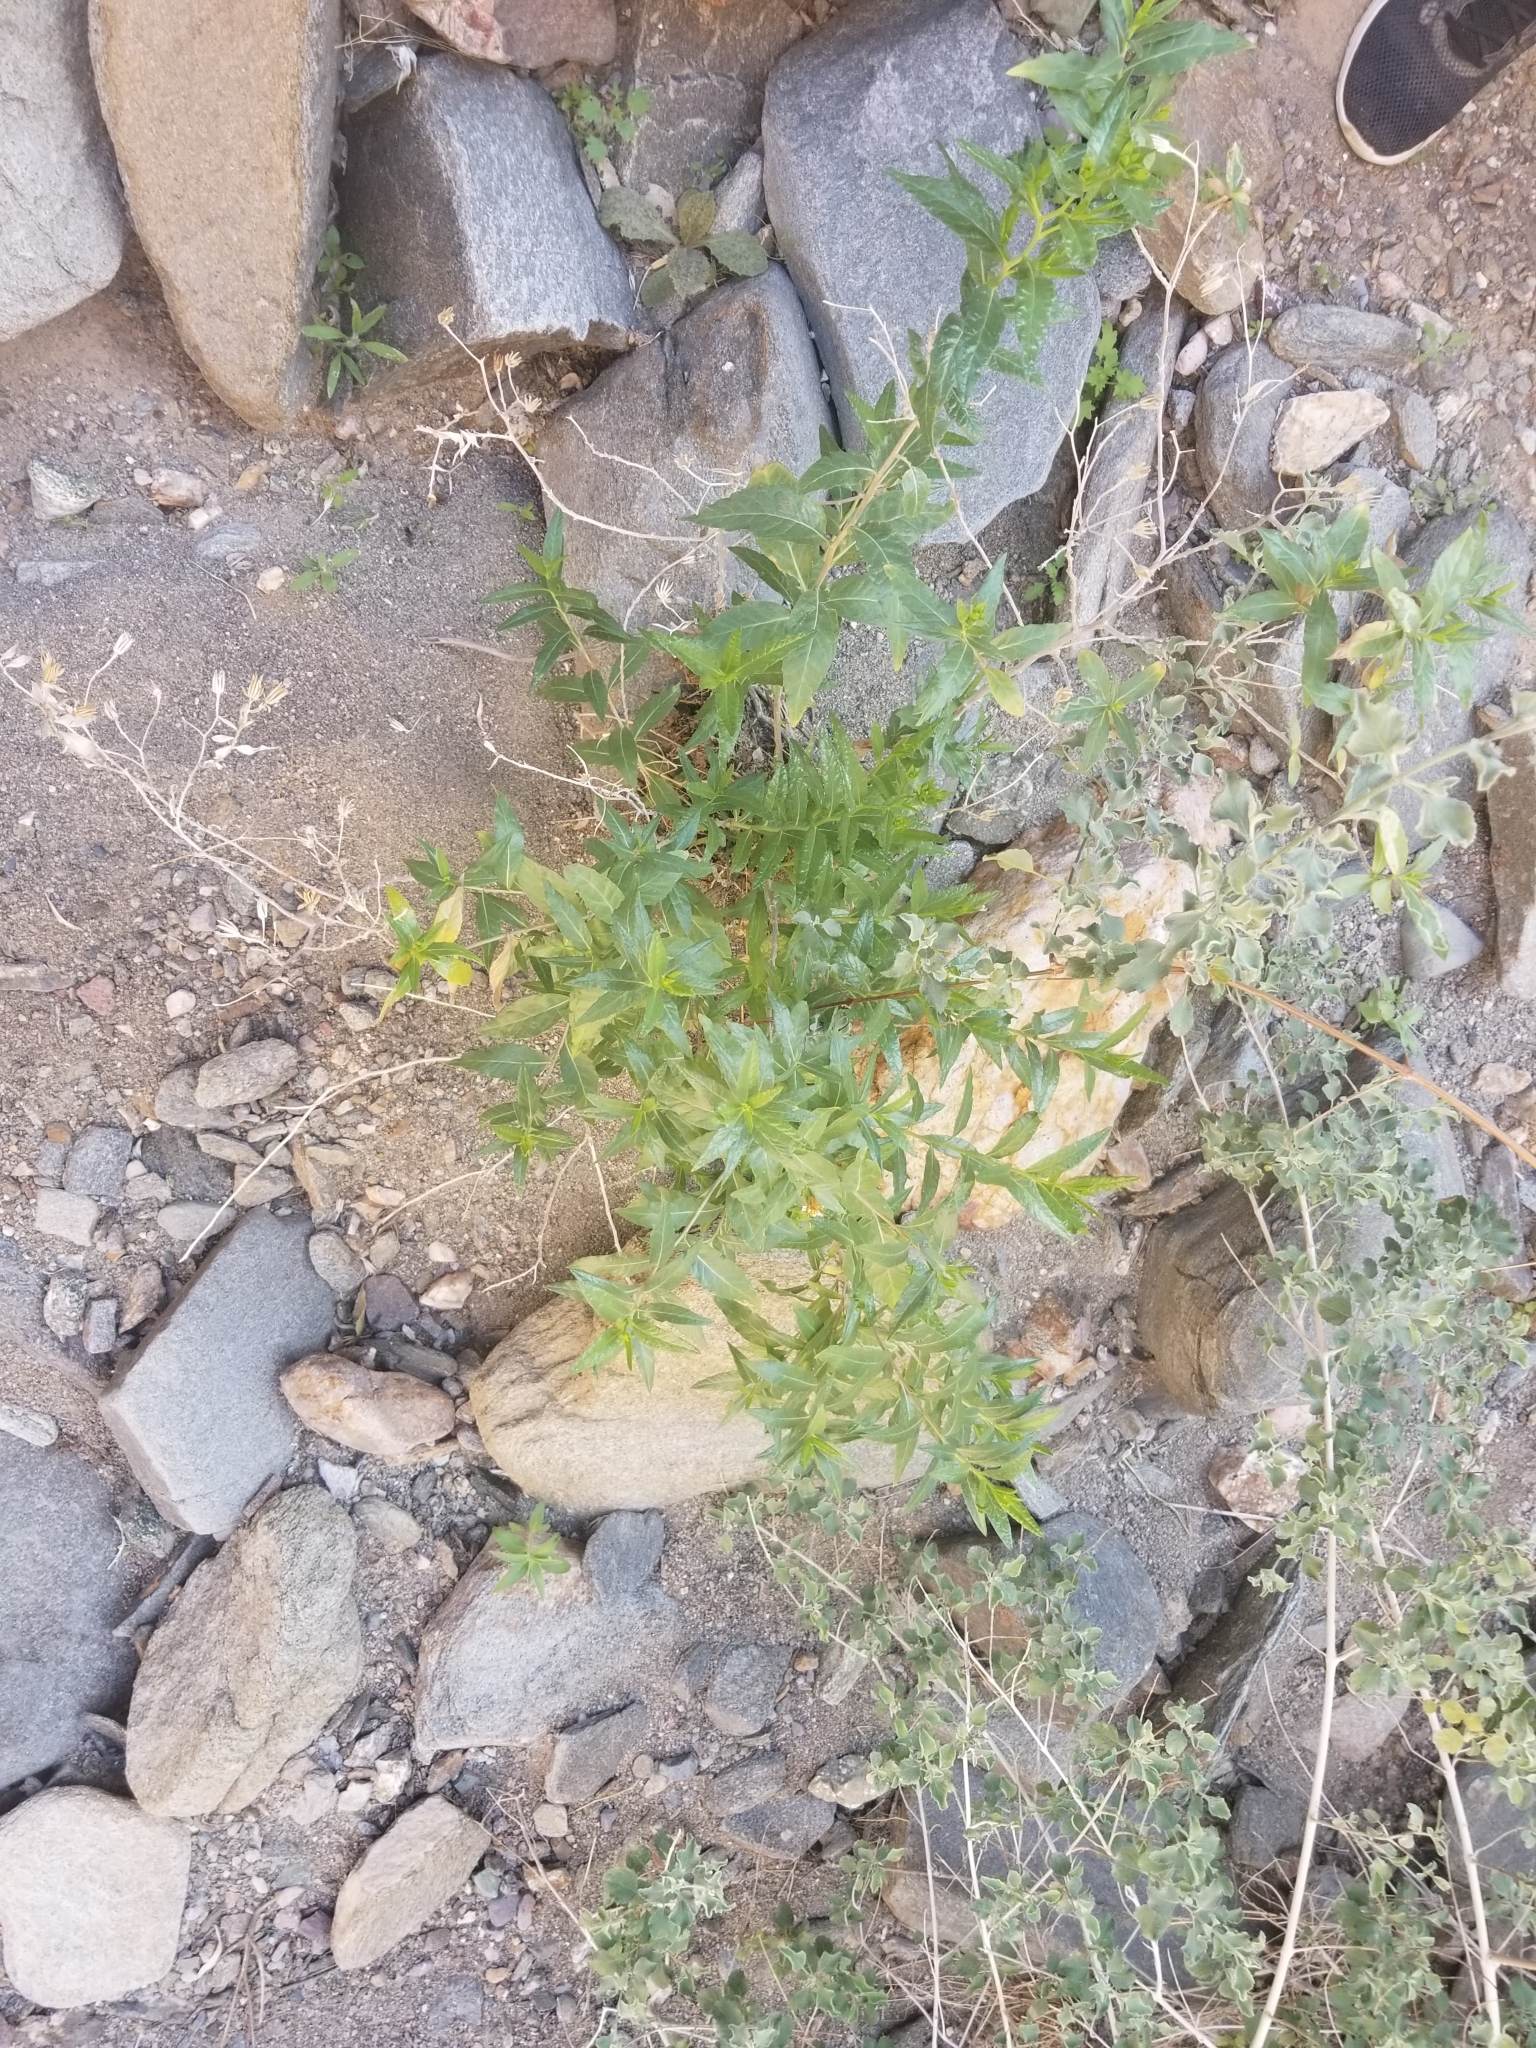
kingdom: Plantae
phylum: Tracheophyta
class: Magnoliopsida
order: Asterales
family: Asteraceae
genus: Trixis
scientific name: Trixis californica
